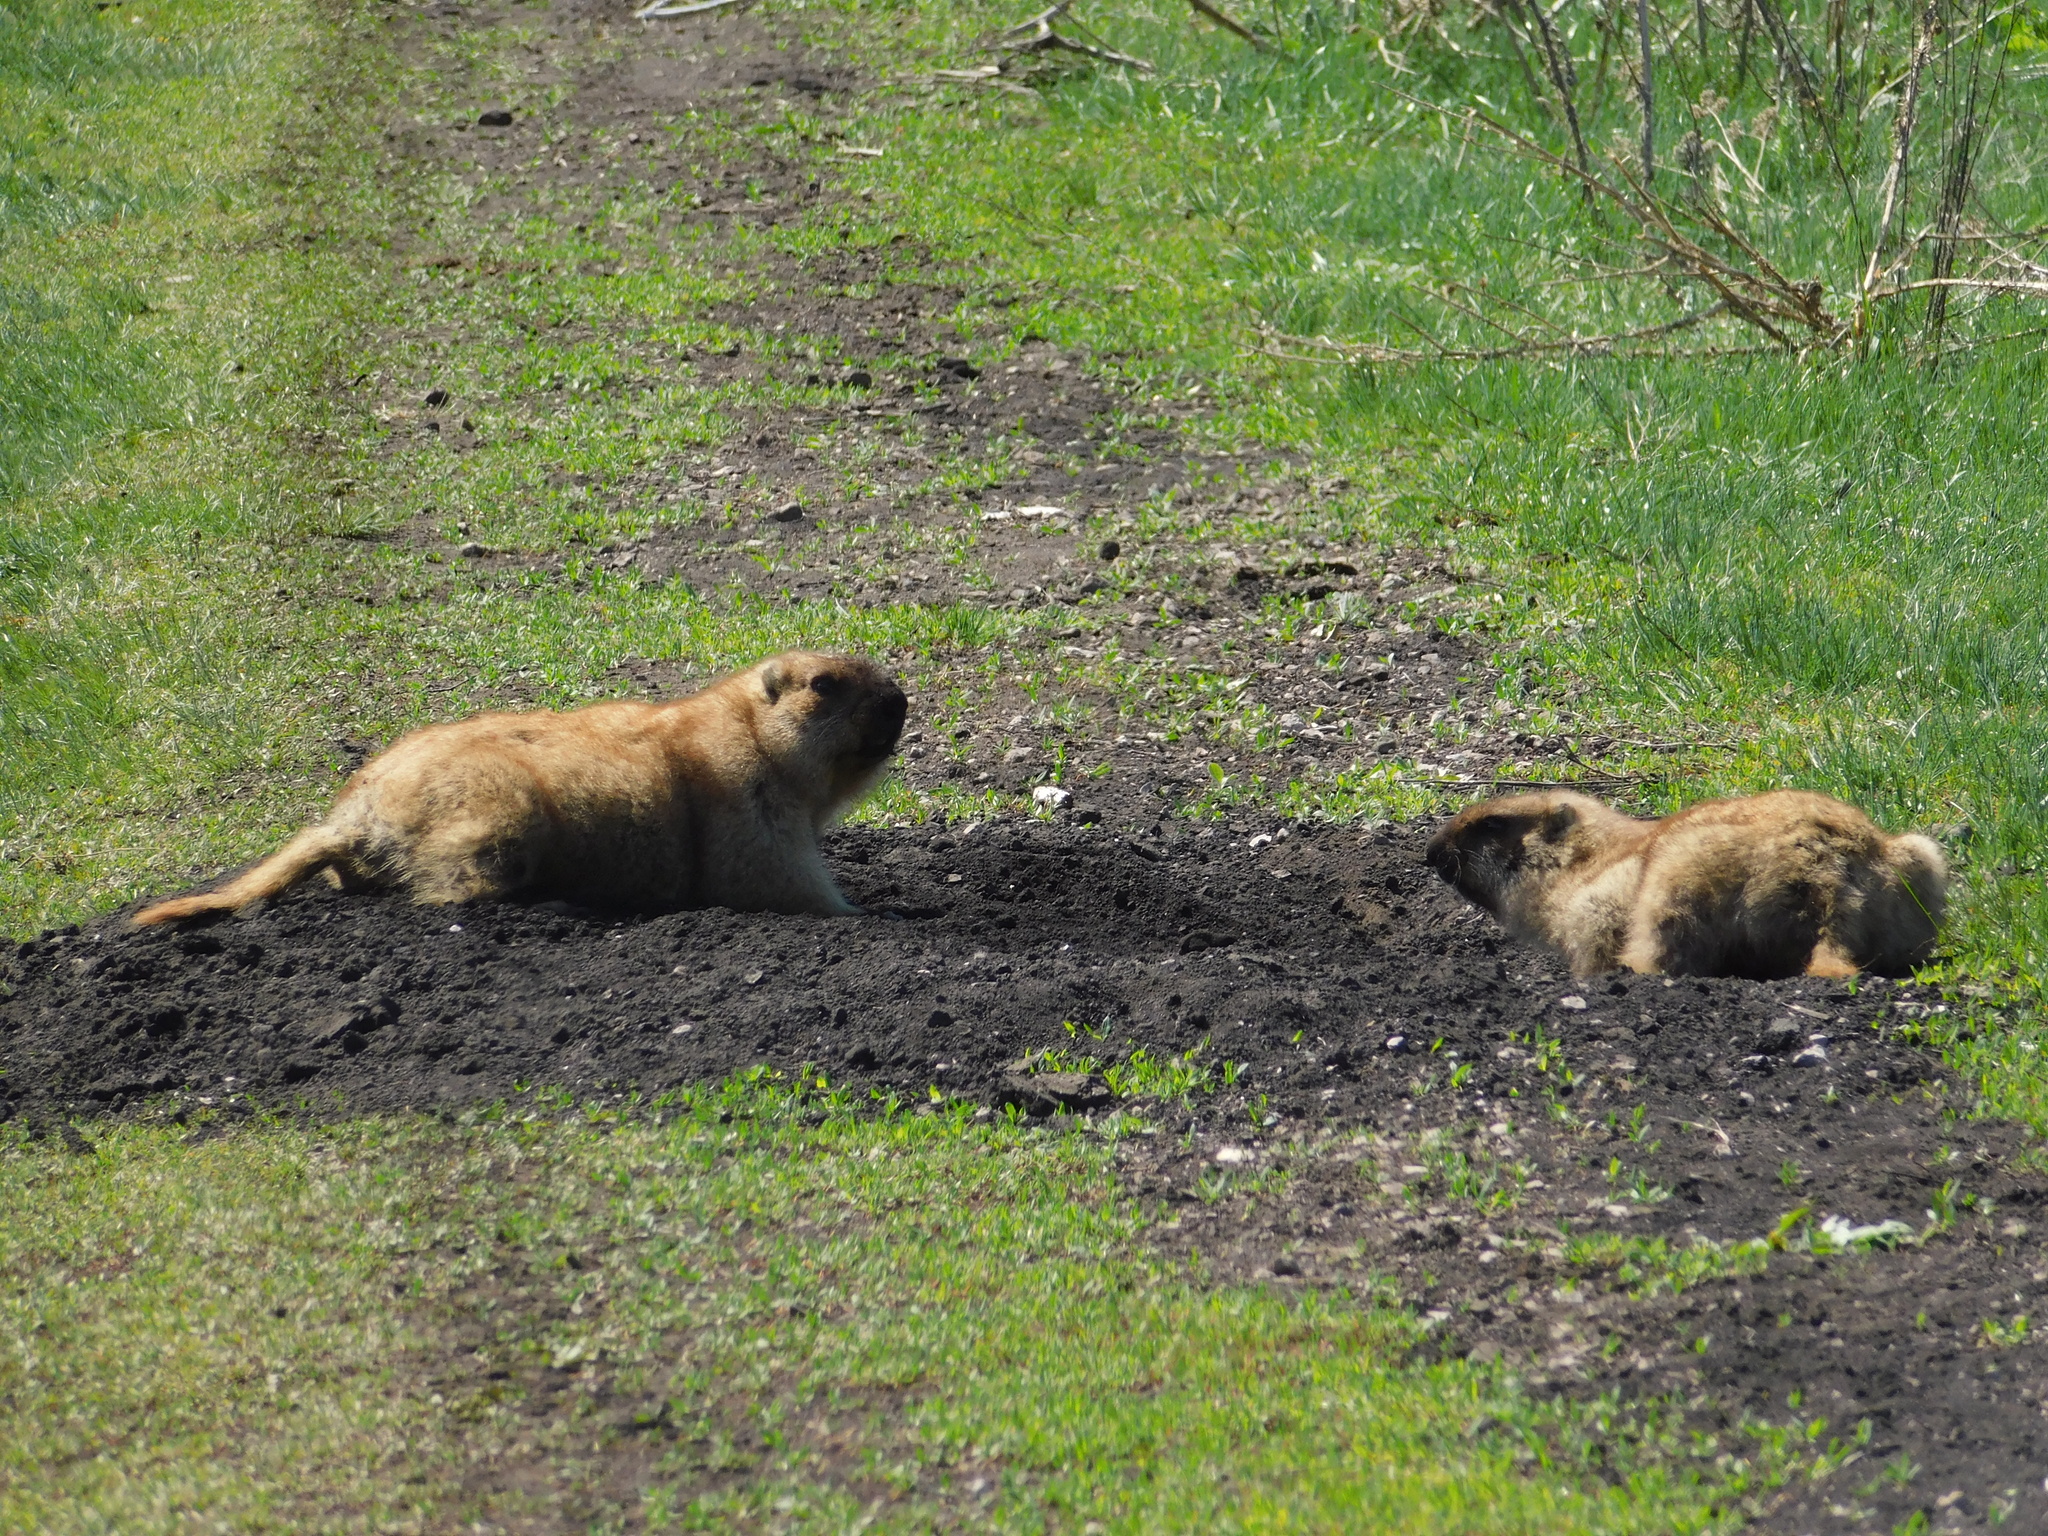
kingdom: Animalia
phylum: Chordata
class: Mammalia
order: Rodentia
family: Sciuridae
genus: Marmota
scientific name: Marmota bobak
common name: Bobak marmot
